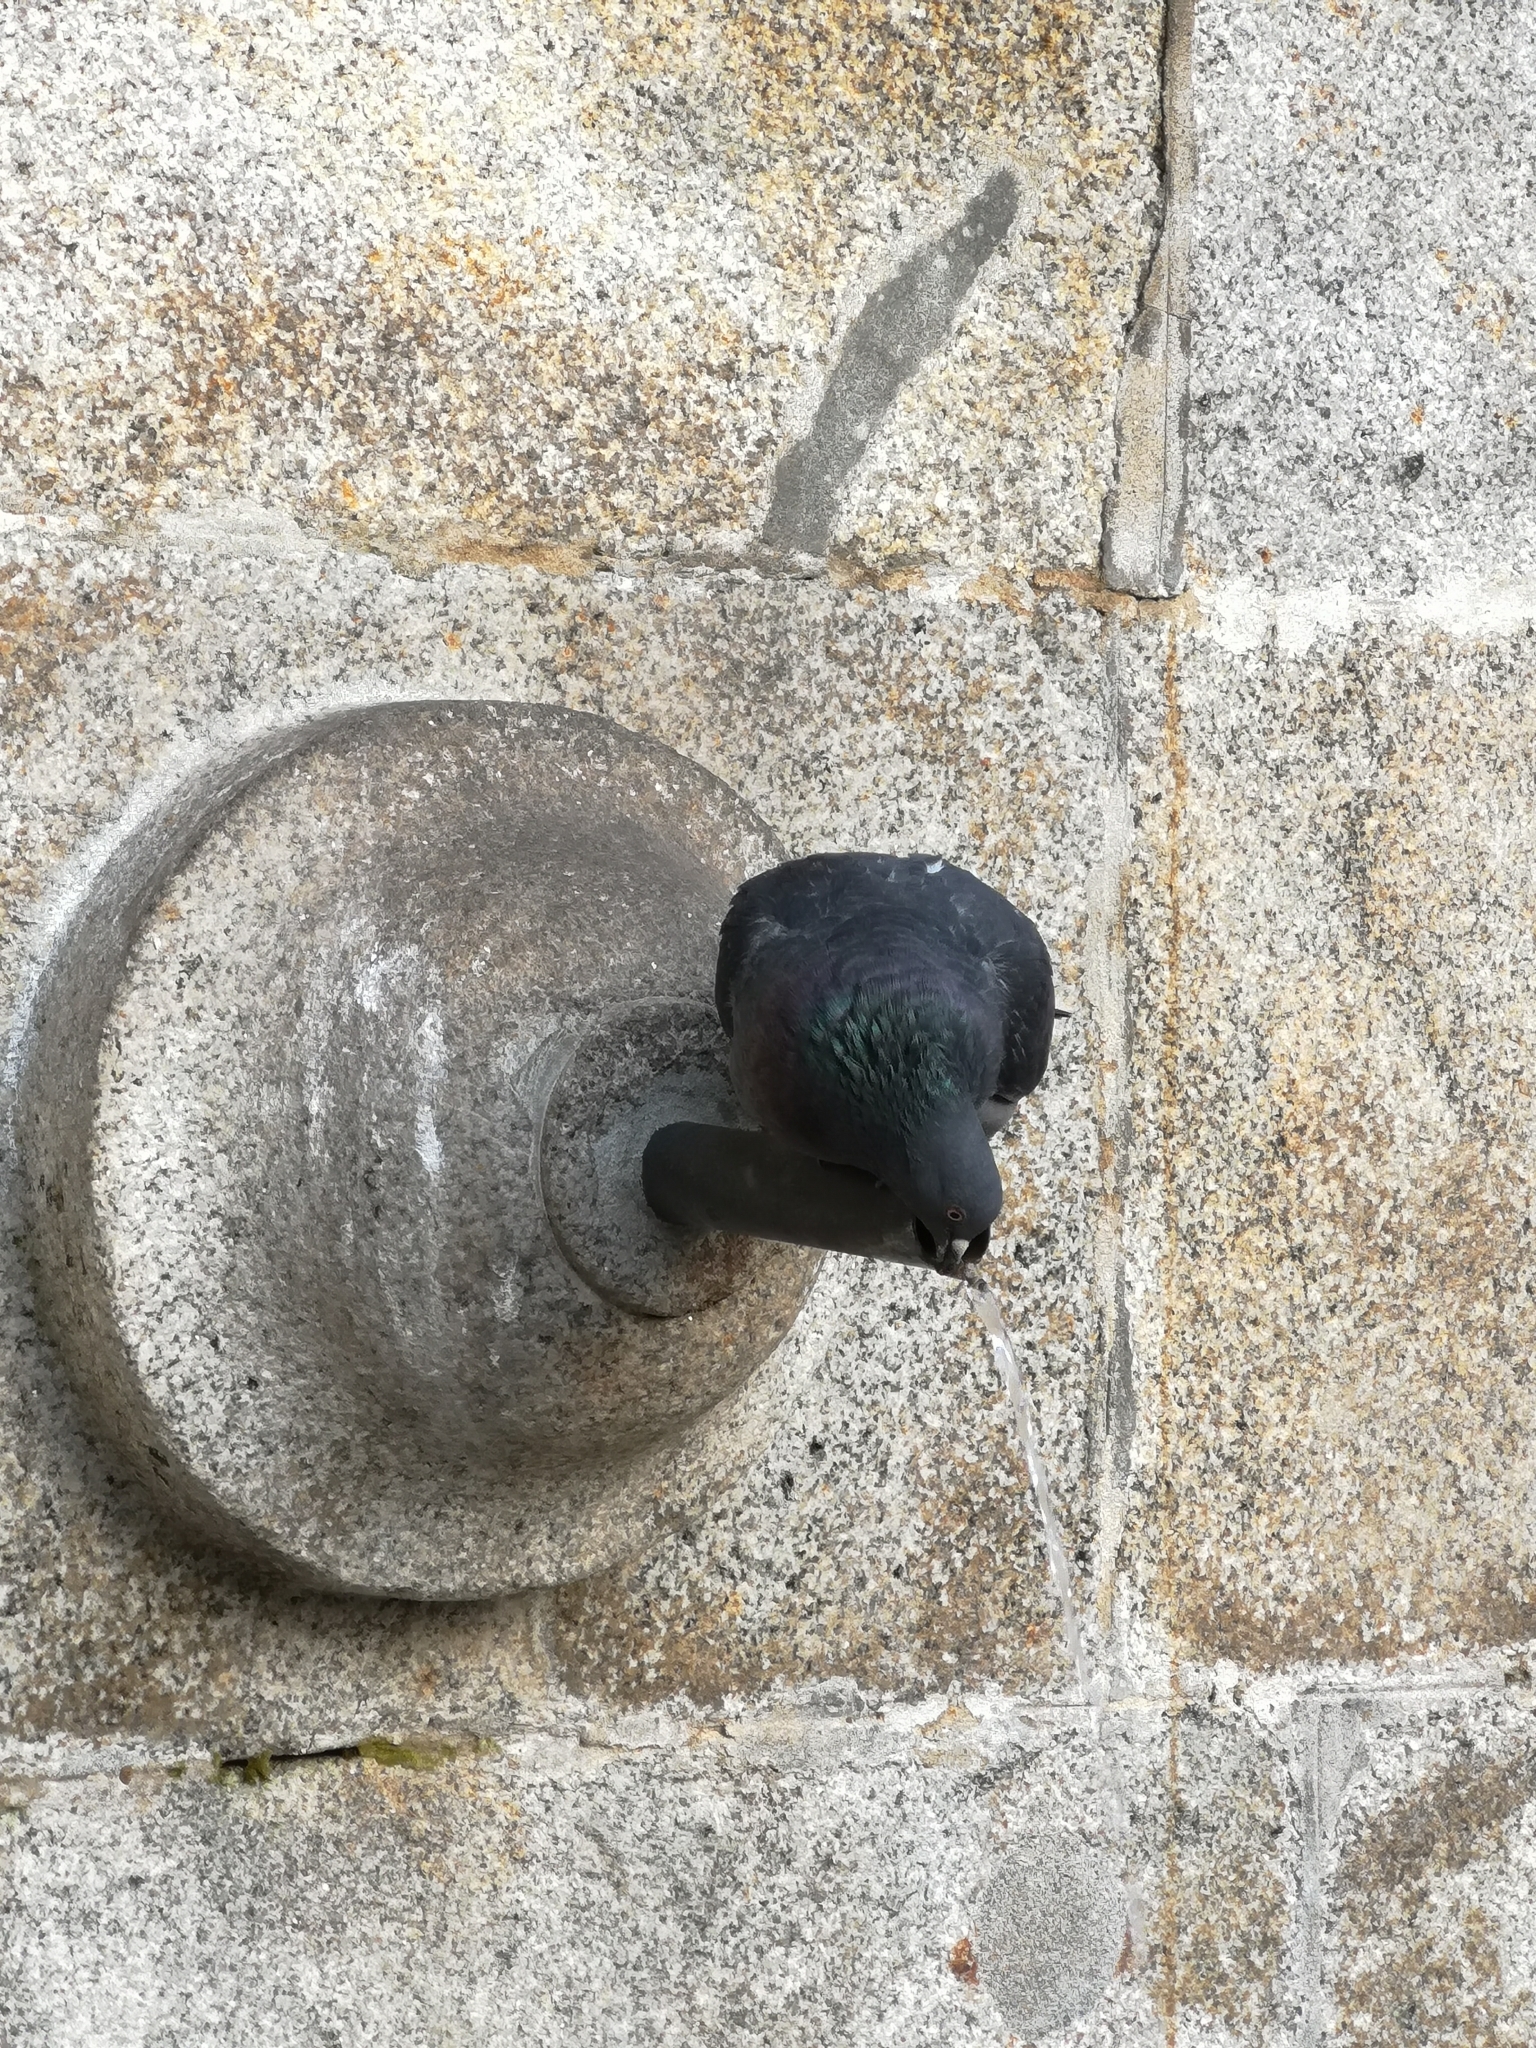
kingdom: Animalia
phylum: Chordata
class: Aves
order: Columbiformes
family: Columbidae
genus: Columba
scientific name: Columba livia
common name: Rock pigeon
